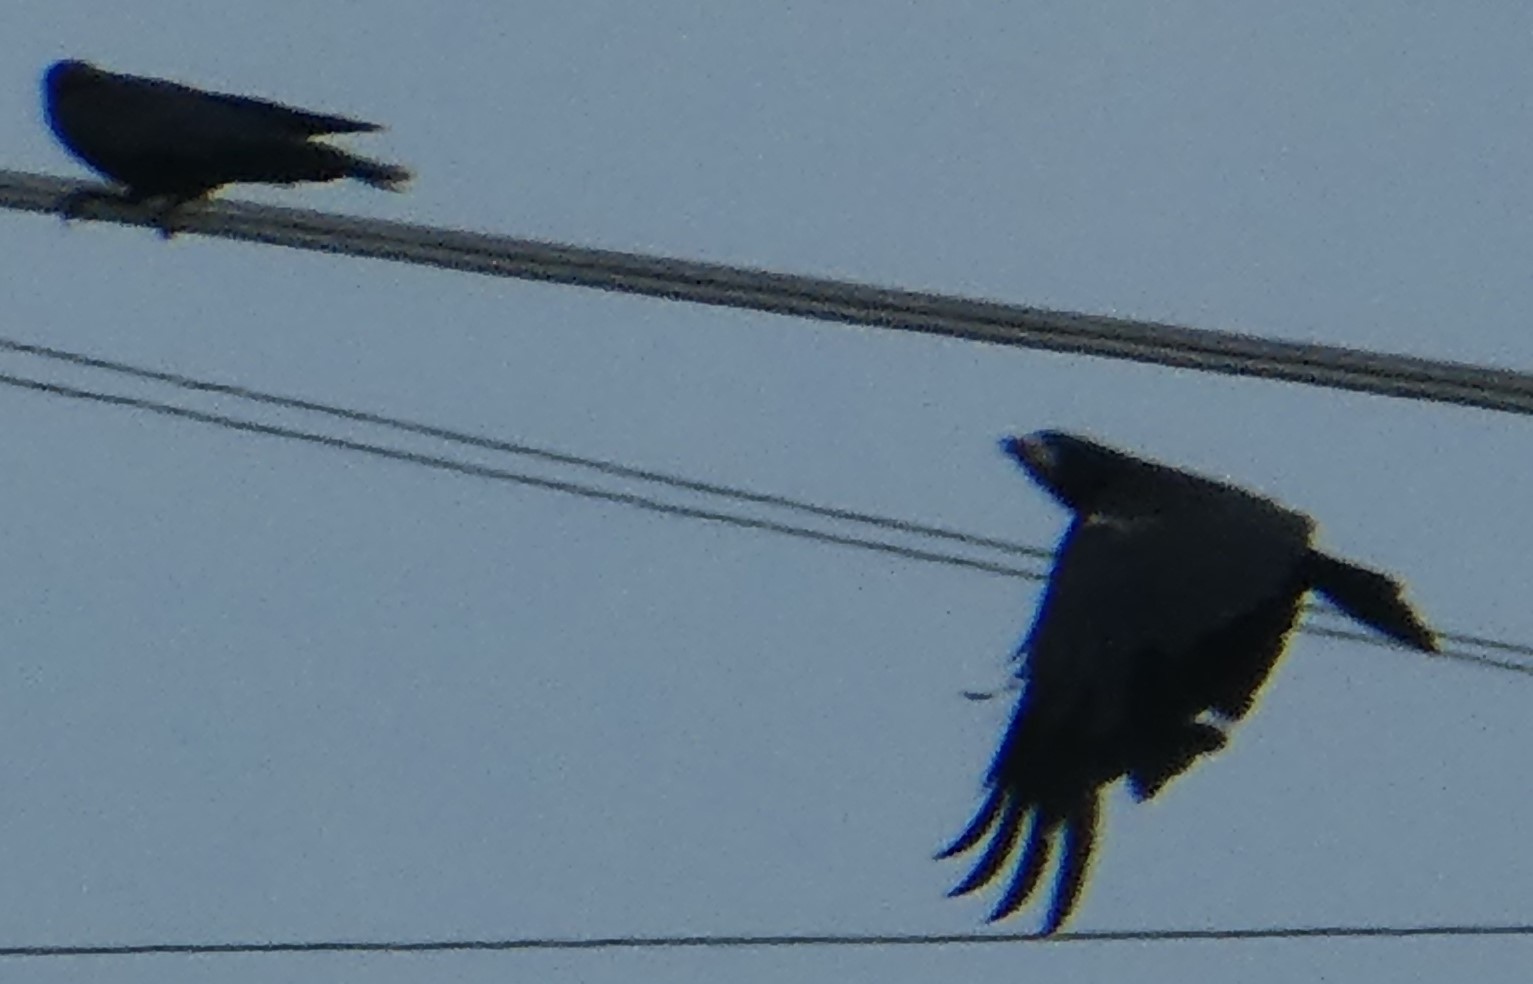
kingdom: Animalia
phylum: Chordata
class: Aves
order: Passeriformes
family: Corvidae
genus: Corvus
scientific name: Corvus frugilegus
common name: Rook
